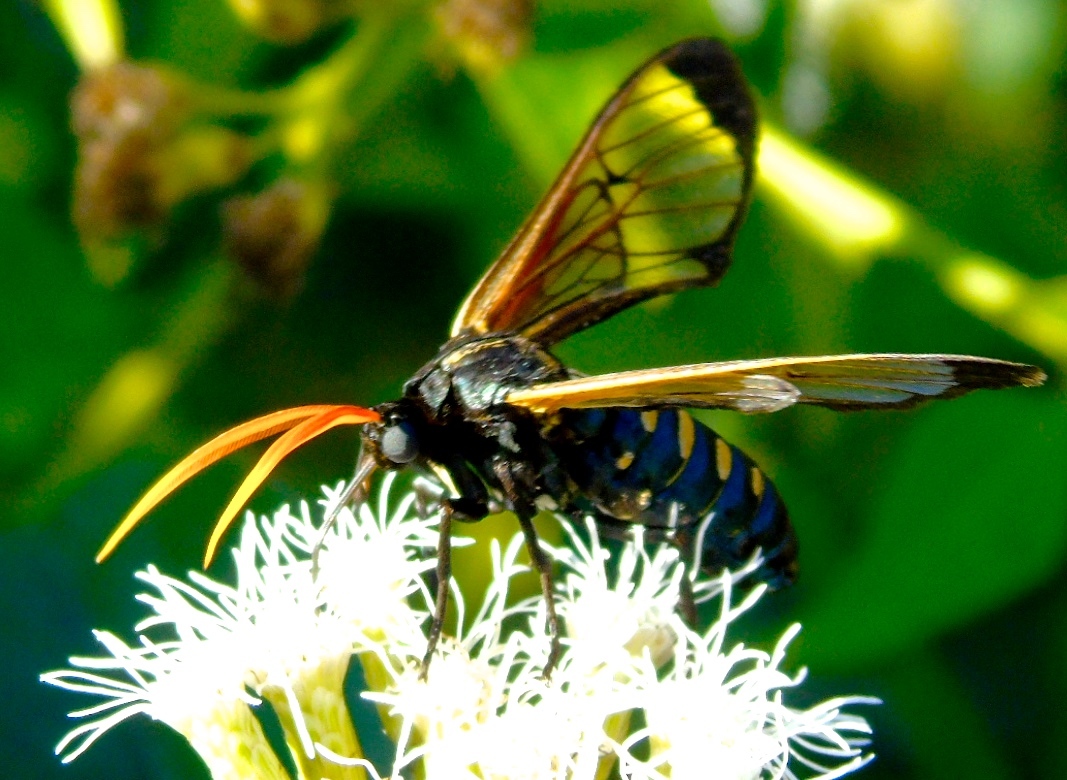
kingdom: Animalia
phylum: Arthropoda
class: Insecta
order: Lepidoptera
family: Erebidae
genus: Isanthrene
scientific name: Isanthrene perboscii
